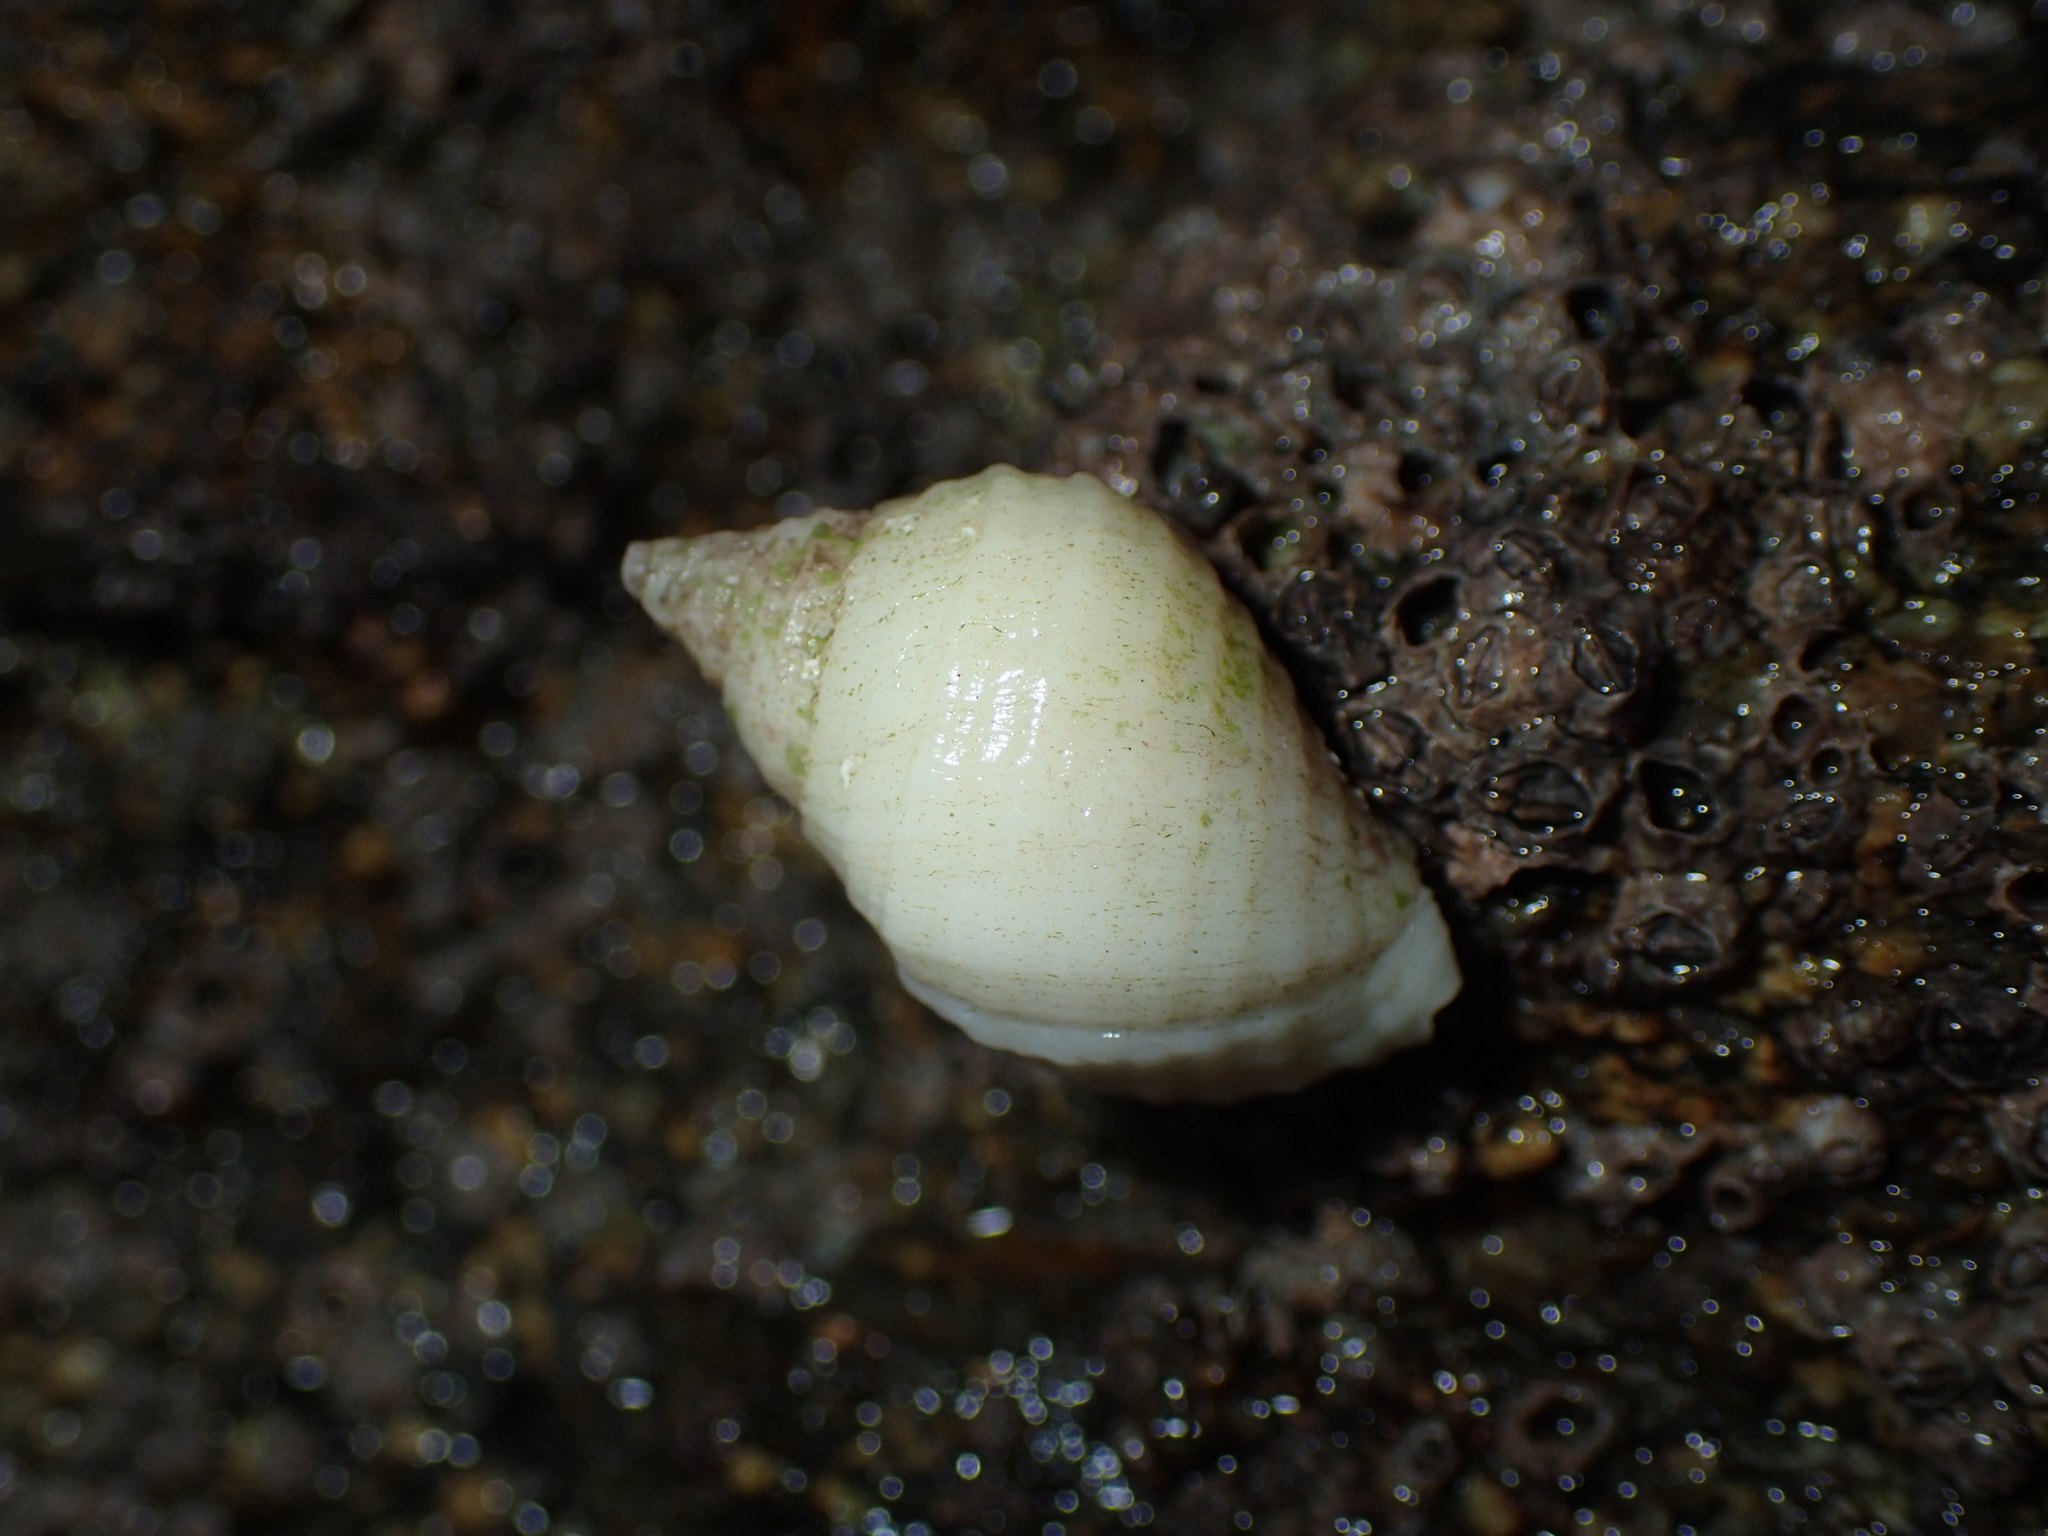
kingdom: Animalia
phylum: Mollusca
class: Gastropoda
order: Neogastropoda
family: Muricidae
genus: Nucella
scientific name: Nucella lapillus
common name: Dog whelk
